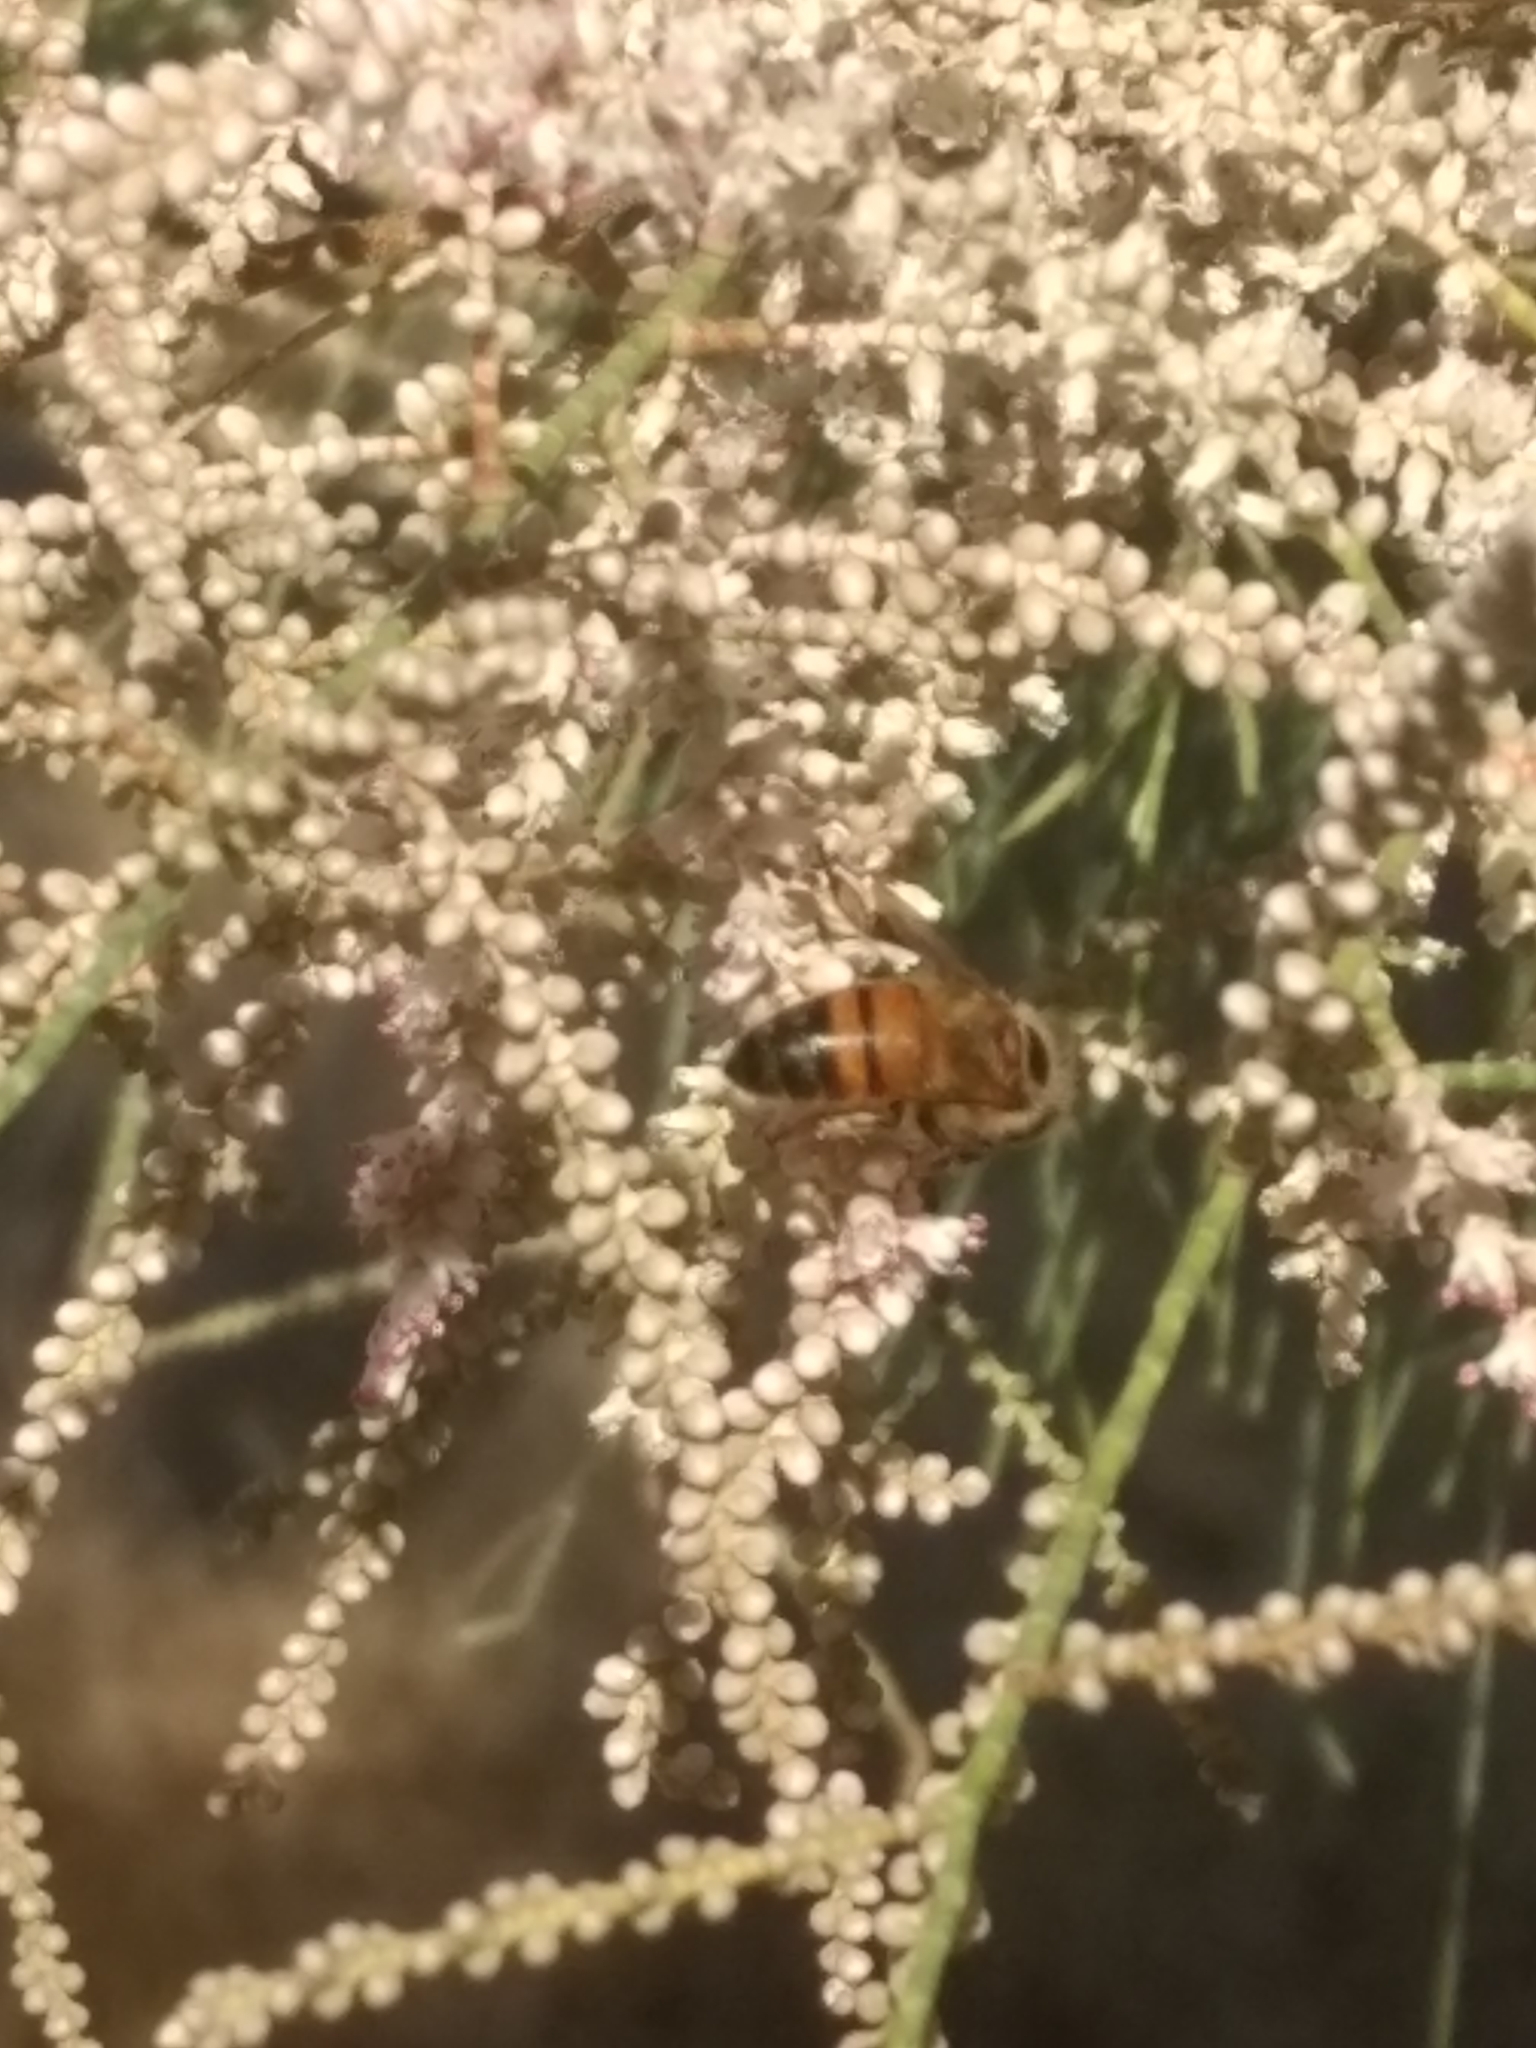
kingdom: Animalia
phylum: Arthropoda
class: Insecta
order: Hymenoptera
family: Apidae
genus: Apis
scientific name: Apis mellifera
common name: Honey bee
